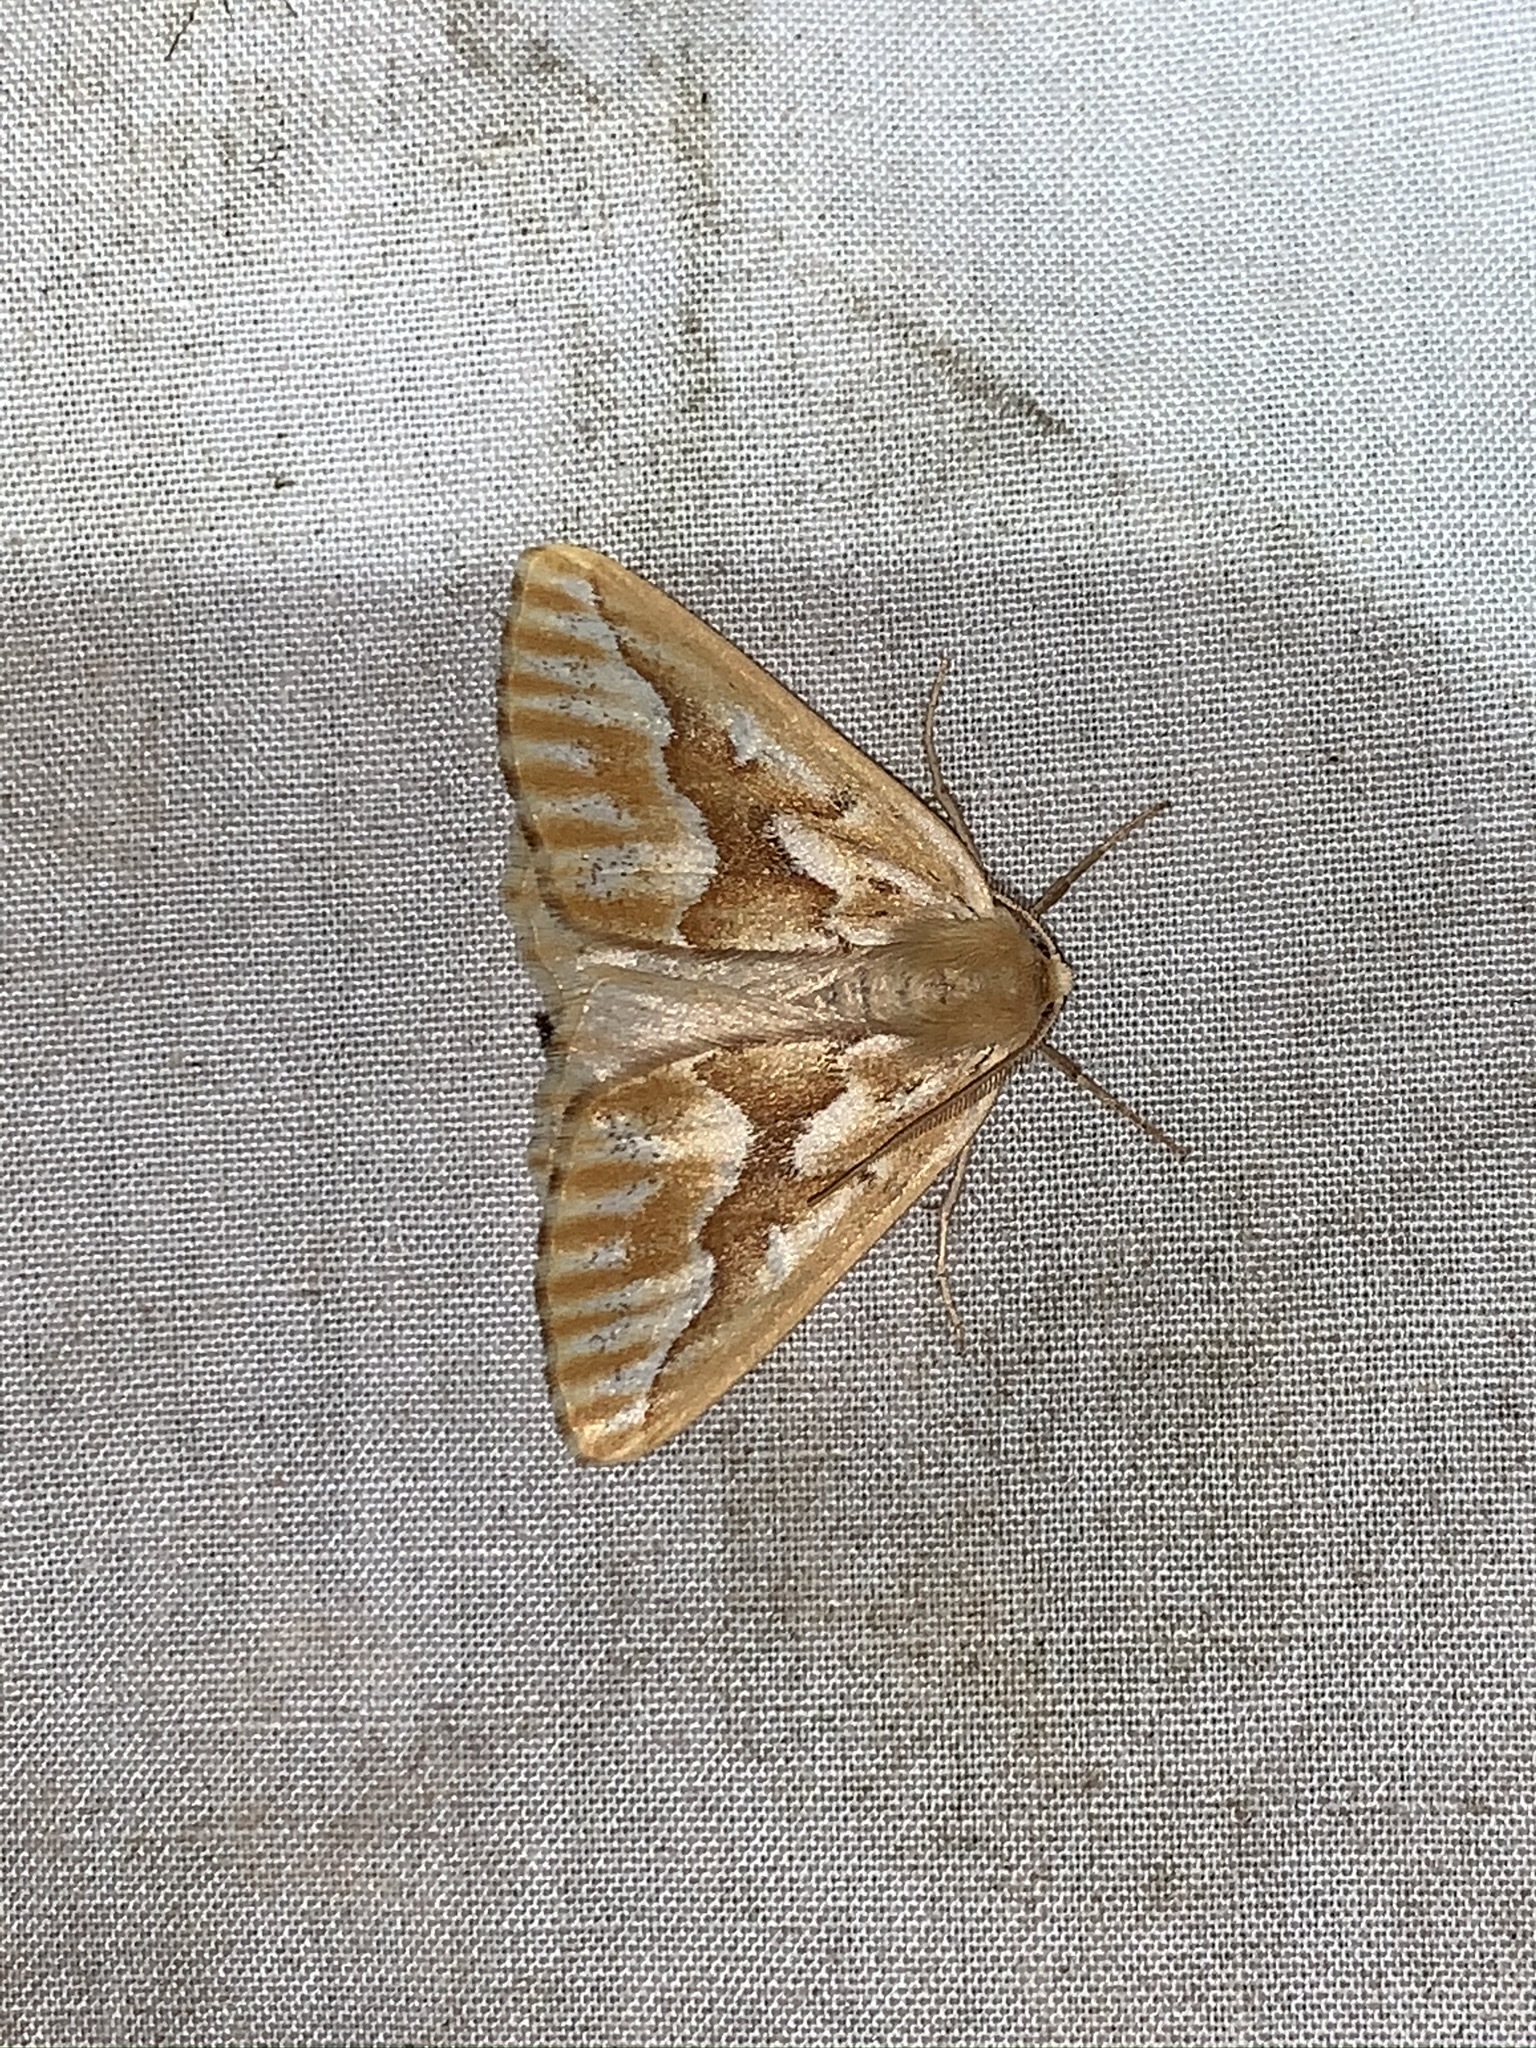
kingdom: Animalia
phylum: Arthropoda
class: Insecta
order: Lepidoptera
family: Geometridae
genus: Caripeta
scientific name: Caripeta piniata
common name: Northern pine looper moth
